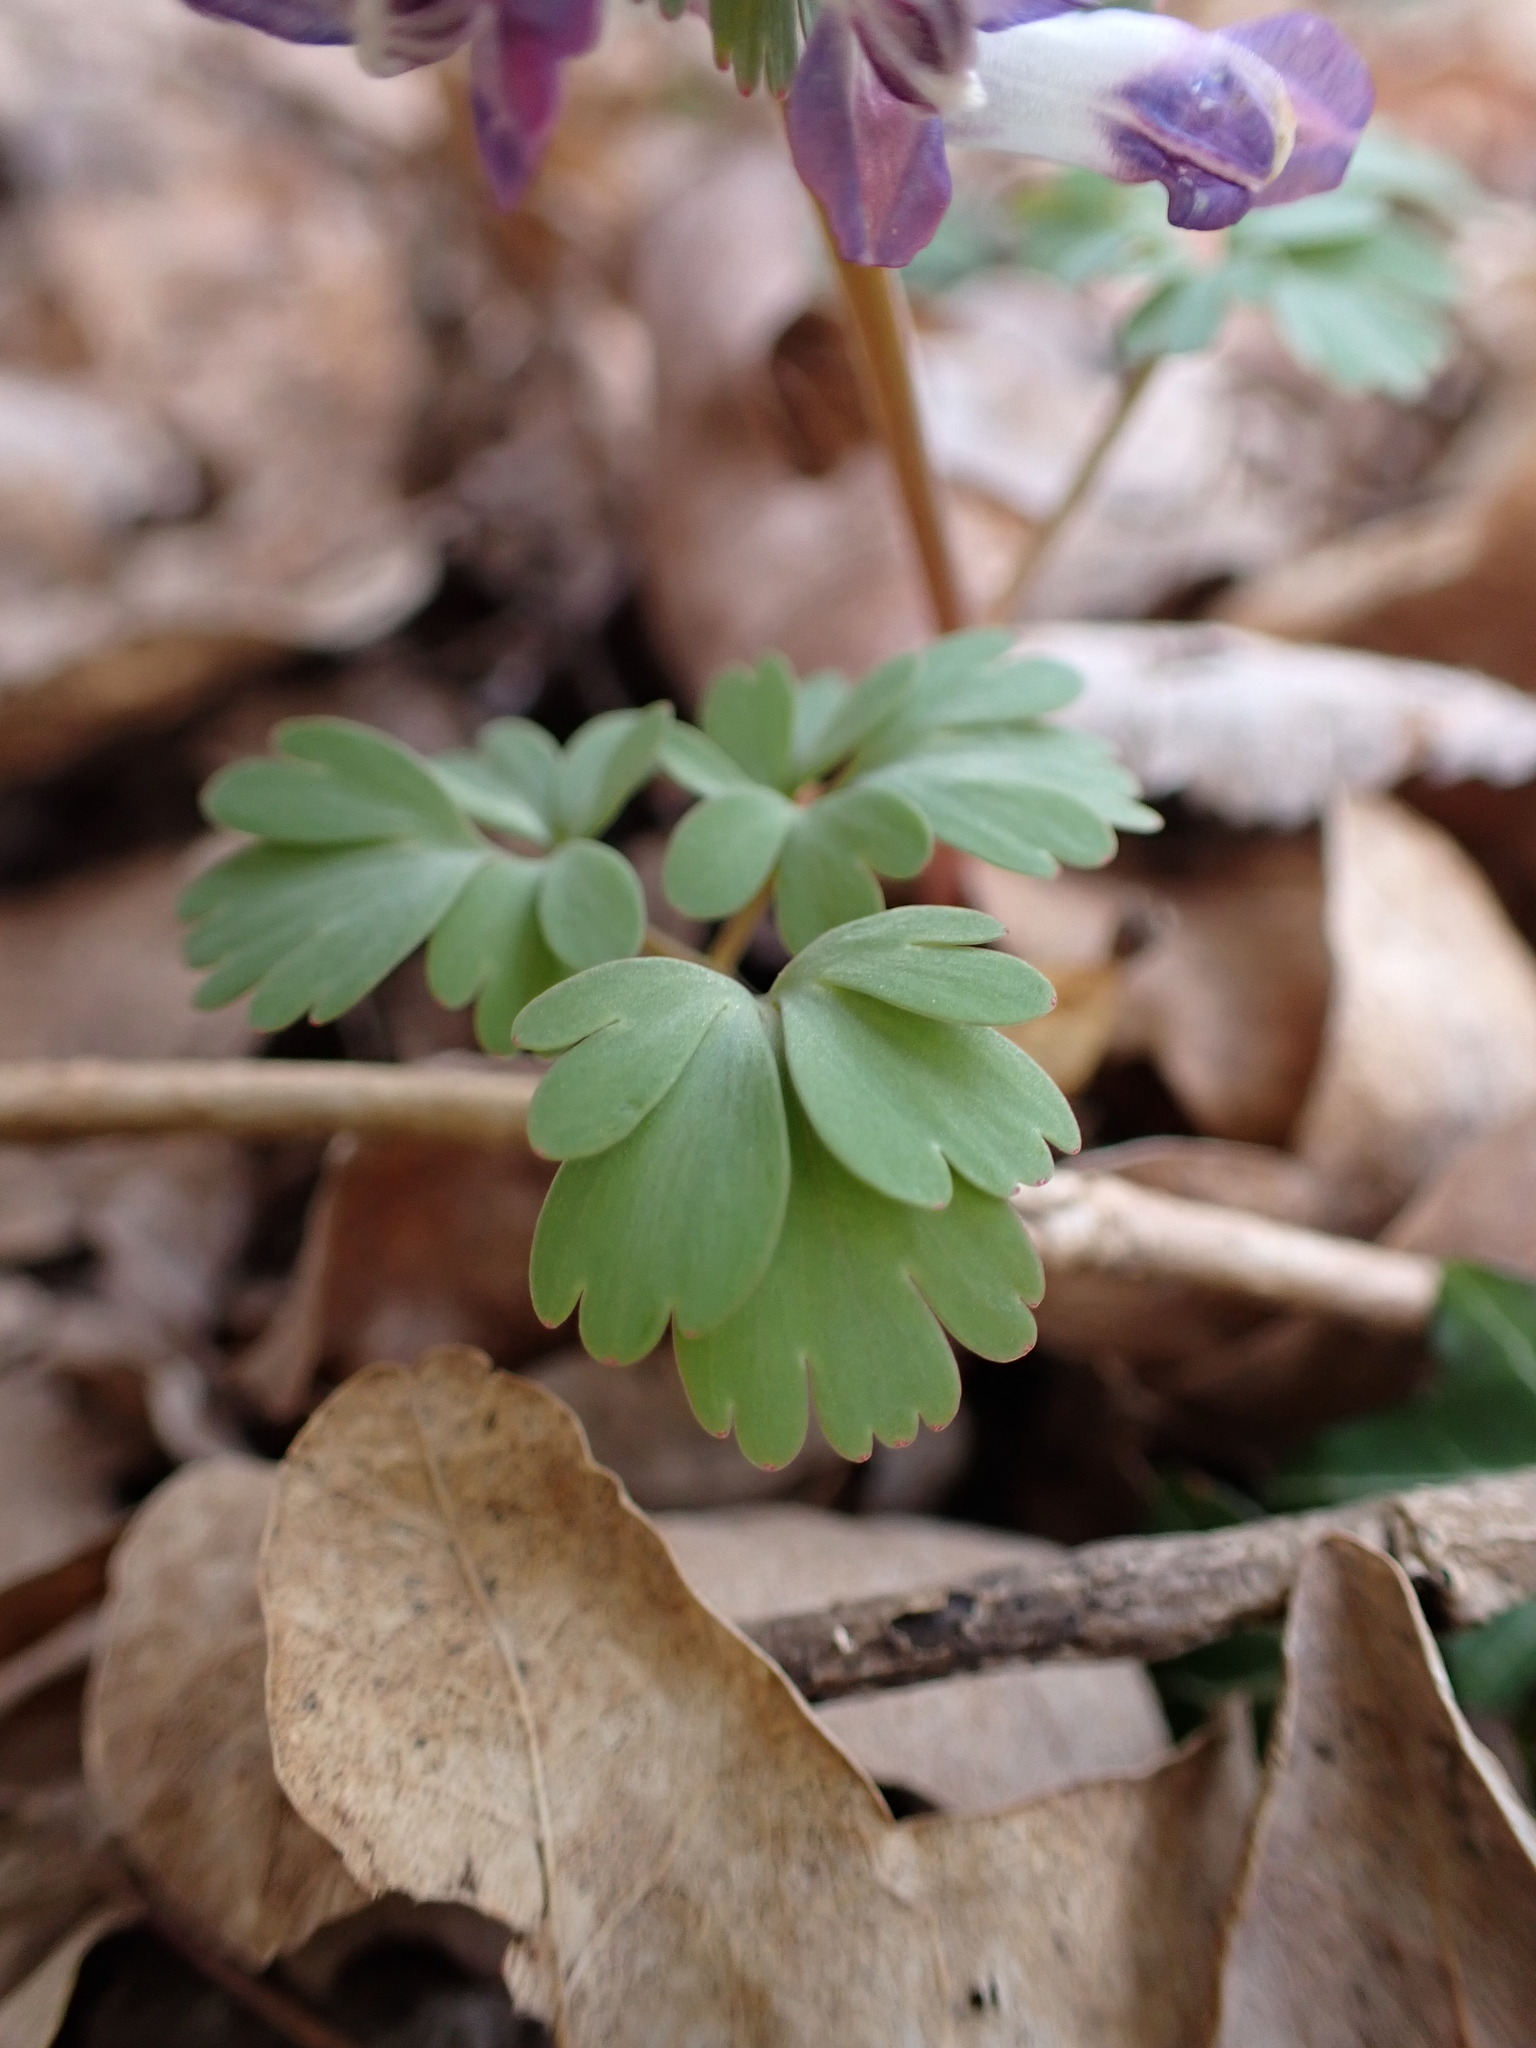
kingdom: Plantae
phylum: Tracheophyta
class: Magnoliopsida
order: Ranunculales
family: Papaveraceae
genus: Corydalis
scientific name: Corydalis solida
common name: Bird-in-a-bush
